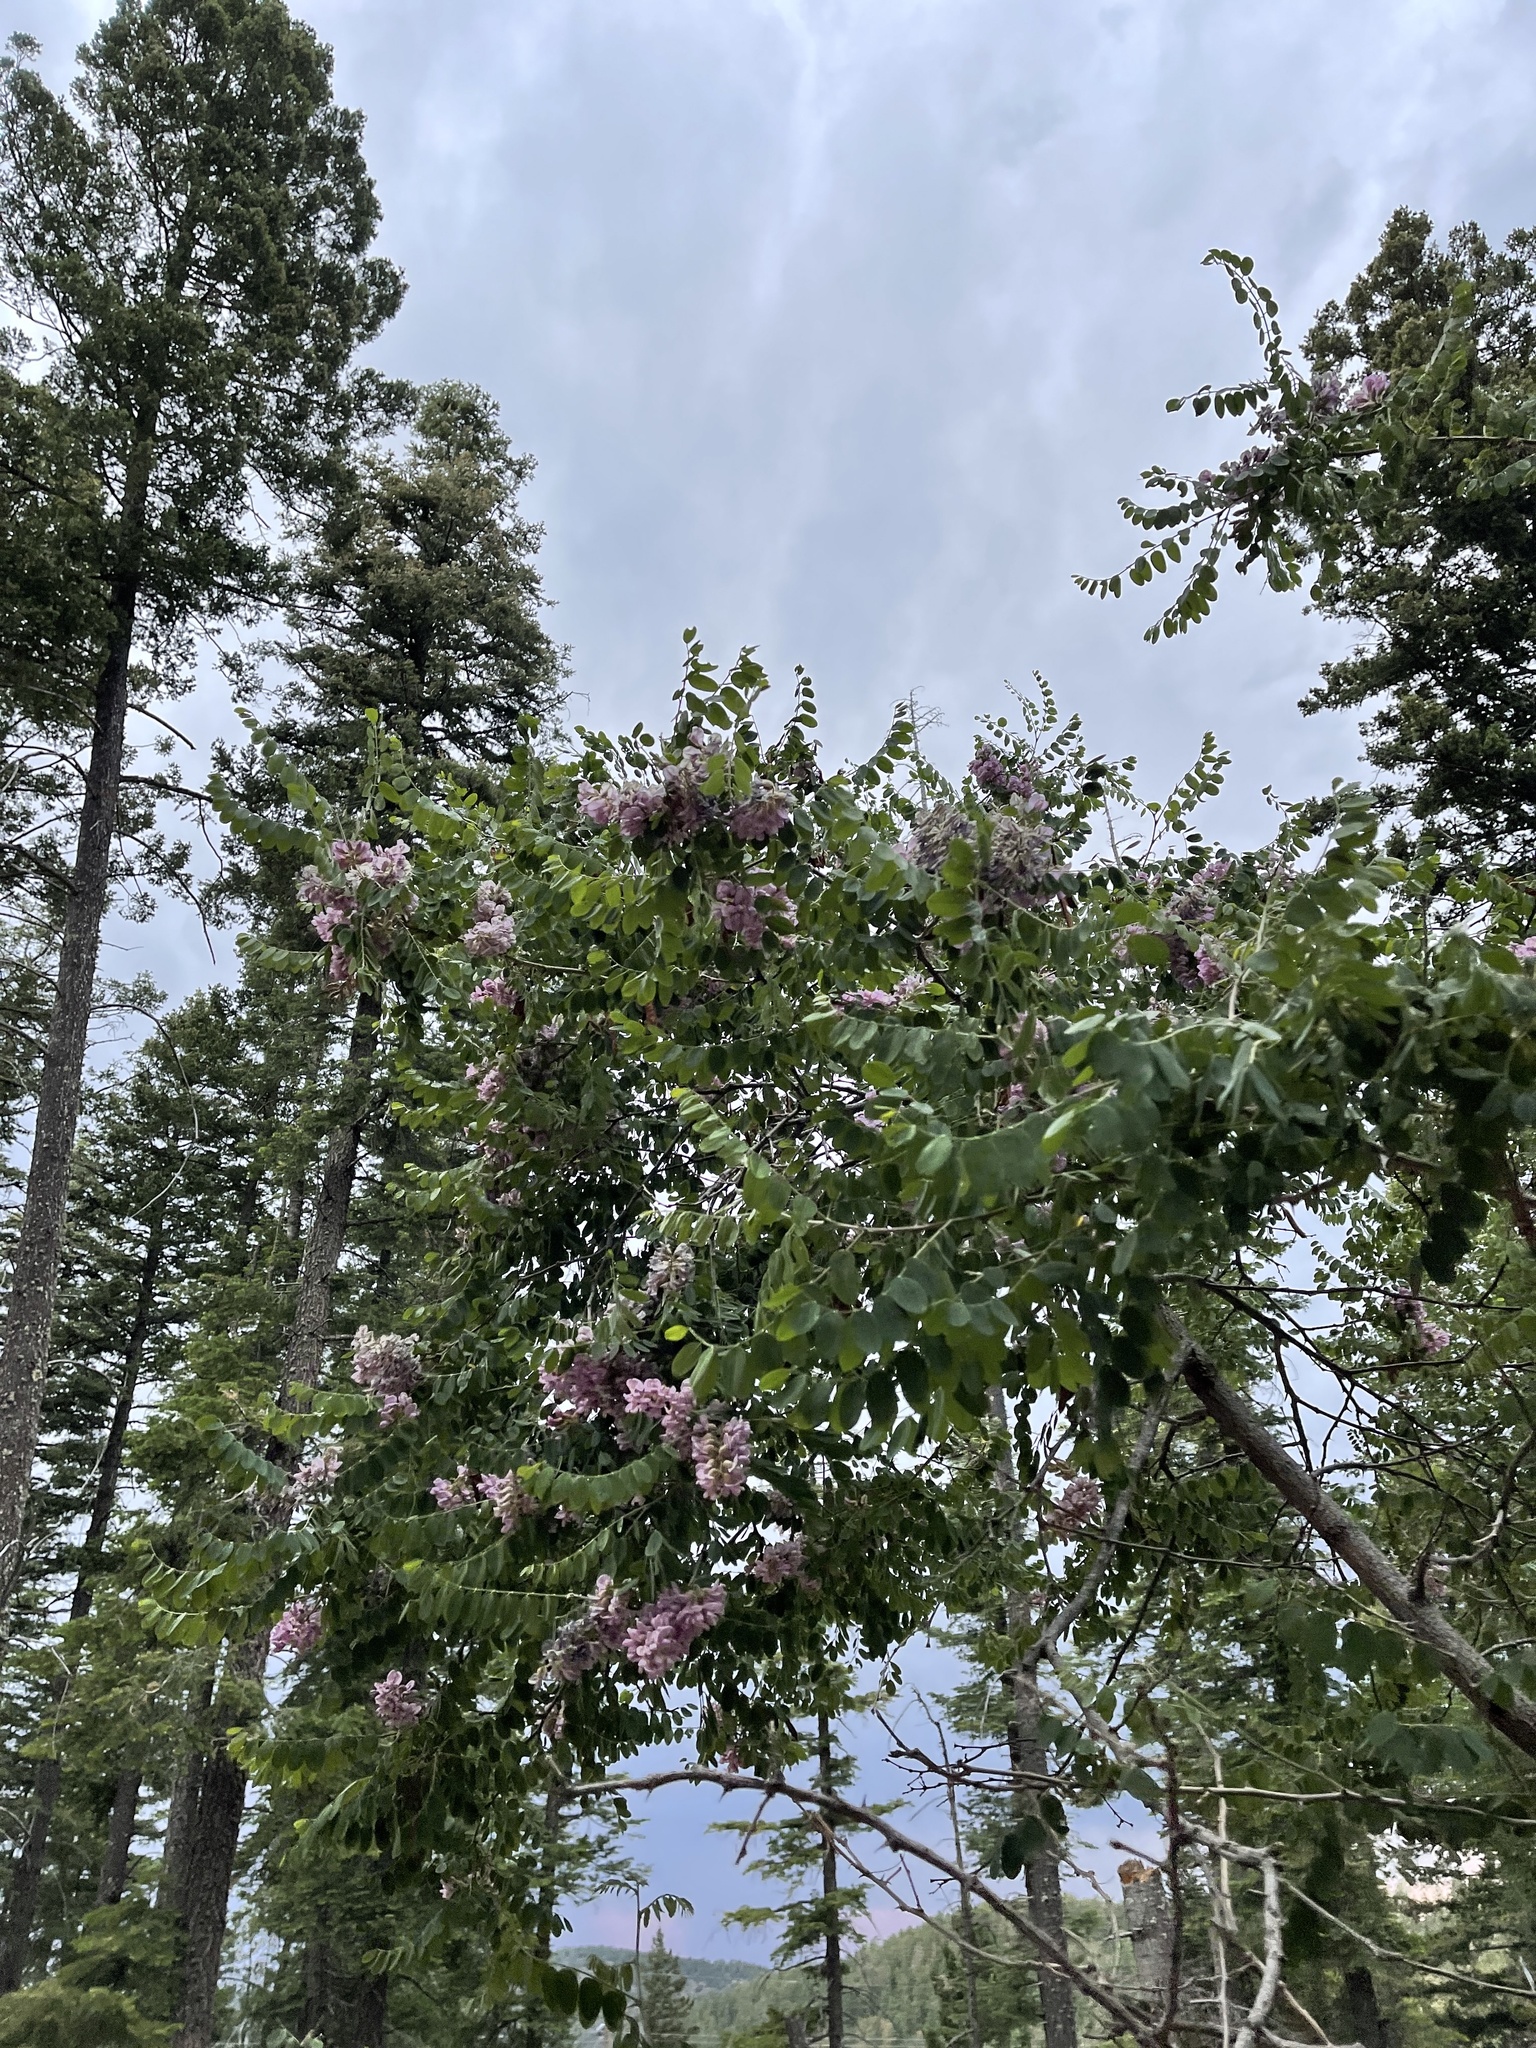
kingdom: Plantae
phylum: Tracheophyta
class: Magnoliopsida
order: Fabales
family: Fabaceae
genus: Robinia
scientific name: Robinia neomexicana
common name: New mexico locust
